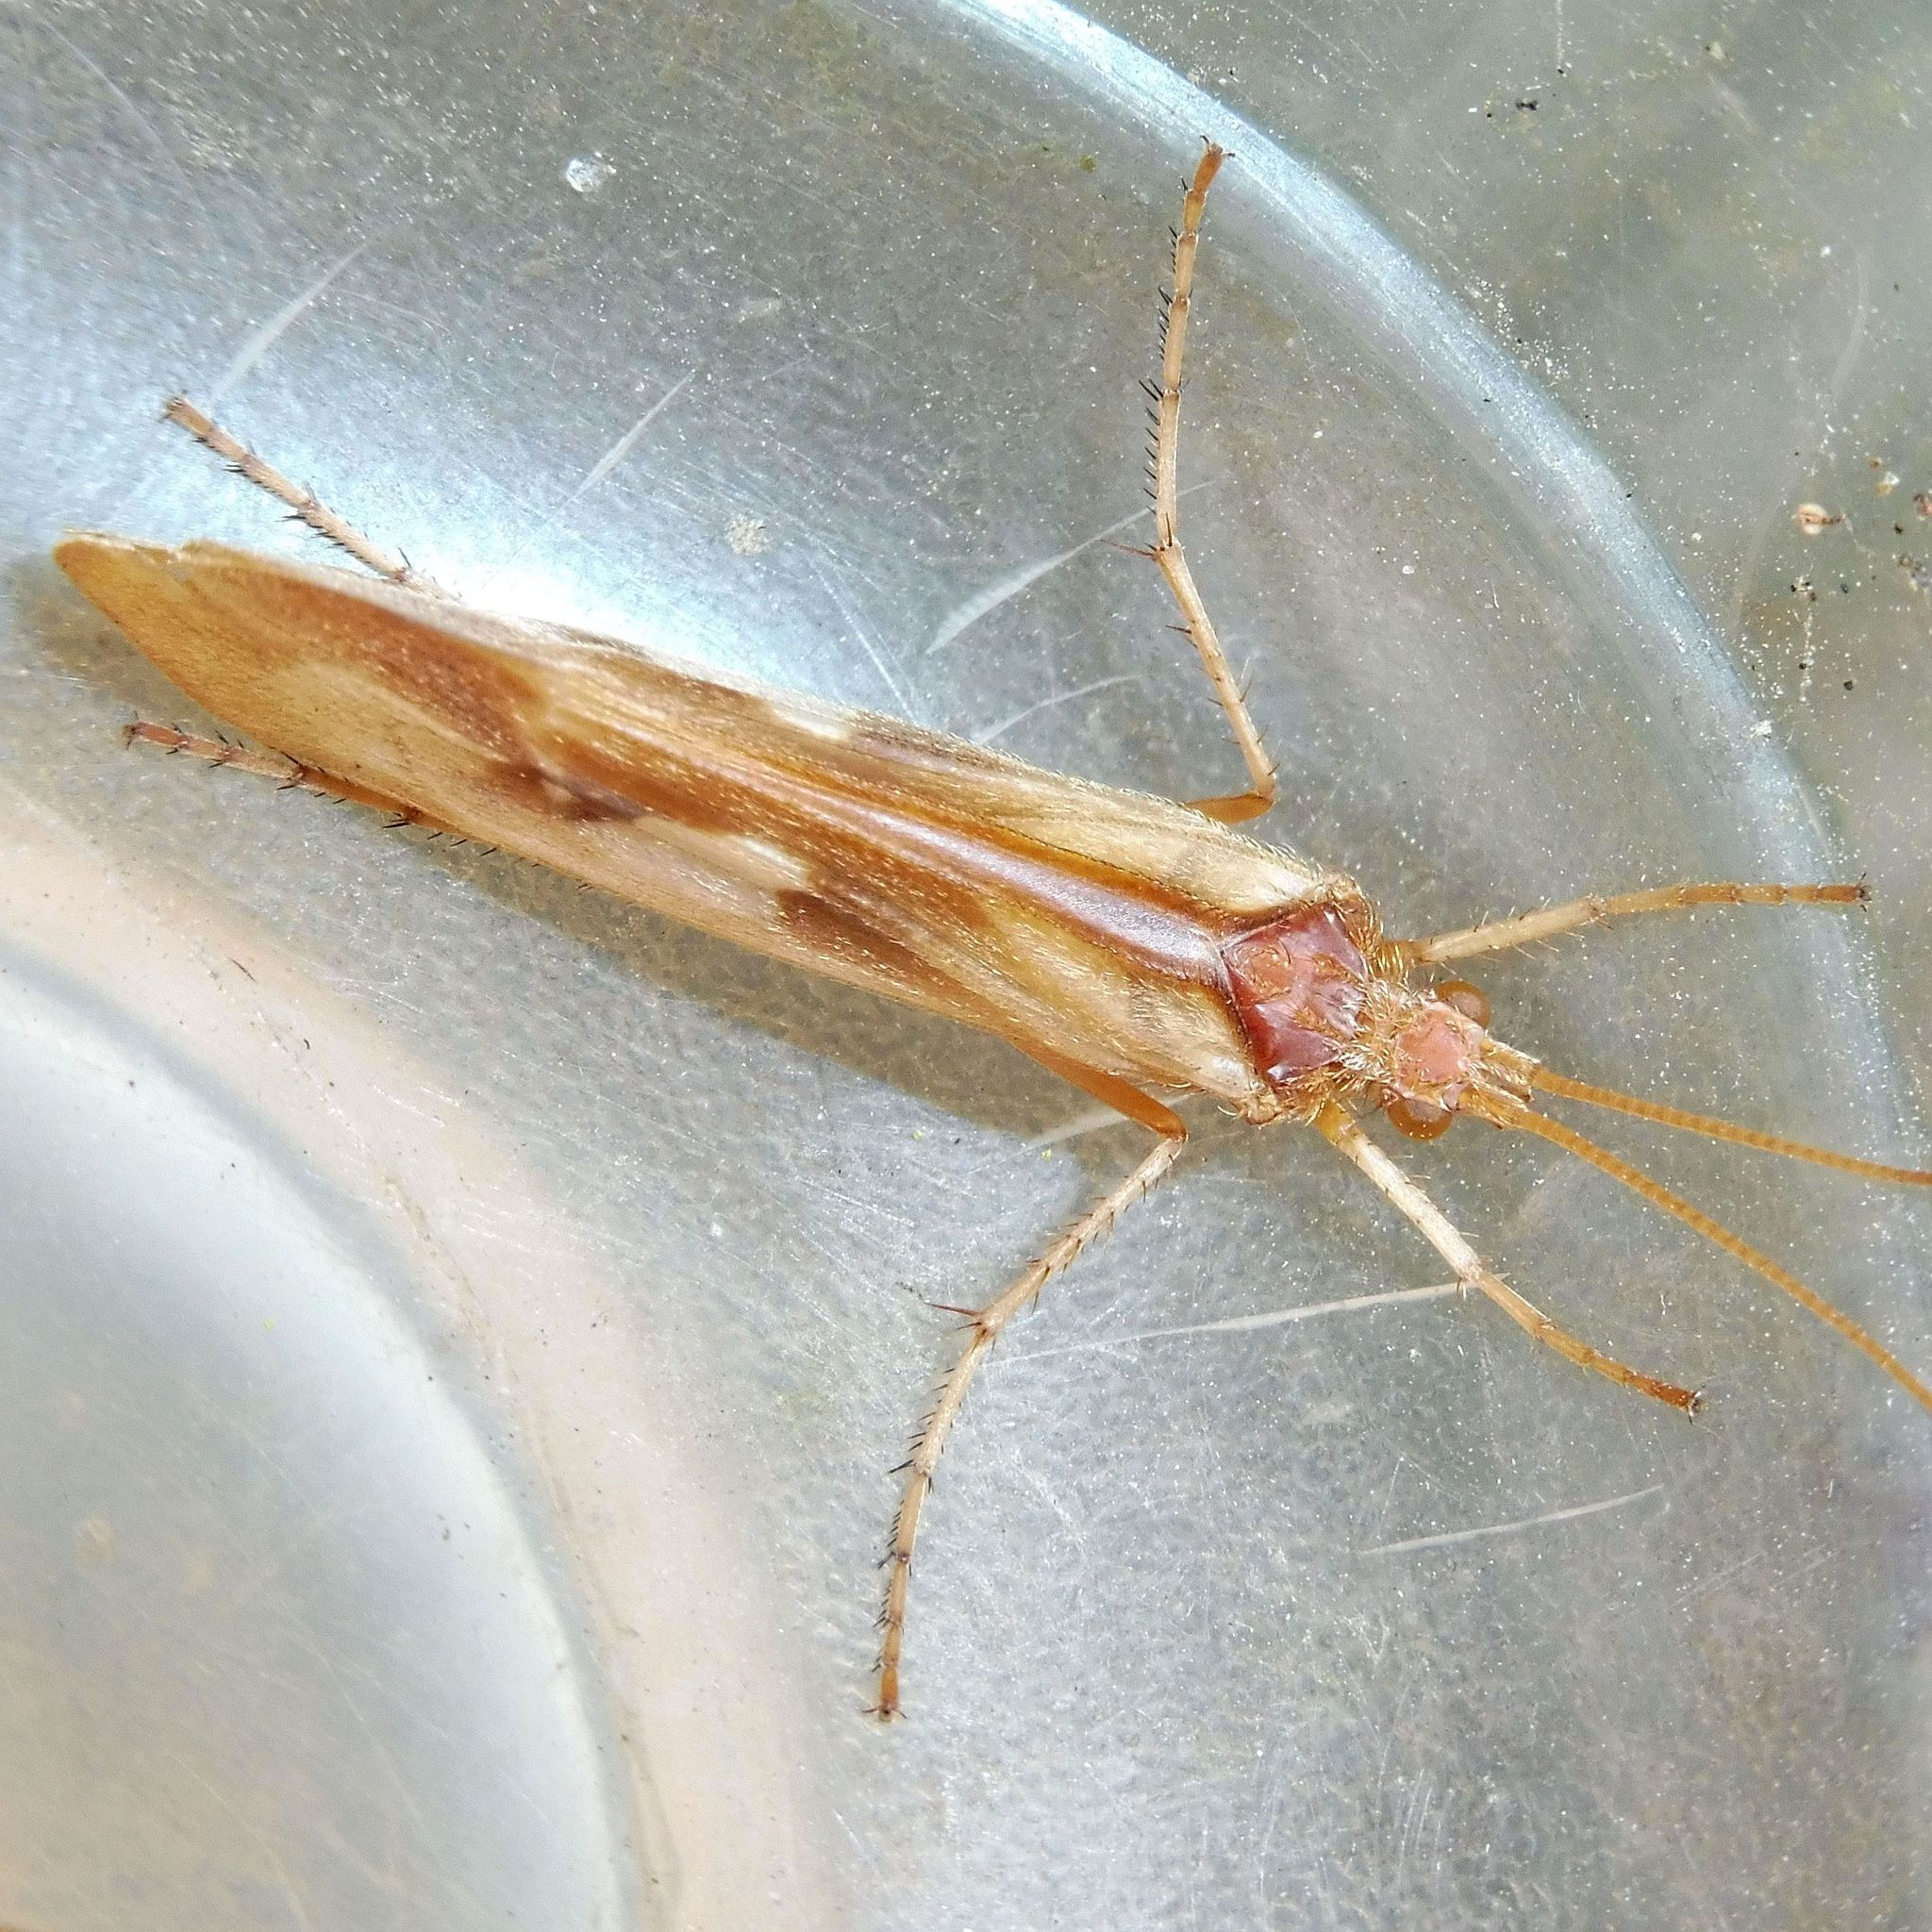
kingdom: Animalia
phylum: Arthropoda
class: Insecta
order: Trichoptera
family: Limnephilidae
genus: Limnephilus
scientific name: Limnephilus rhombicus
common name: Diamond northern caddisfly
